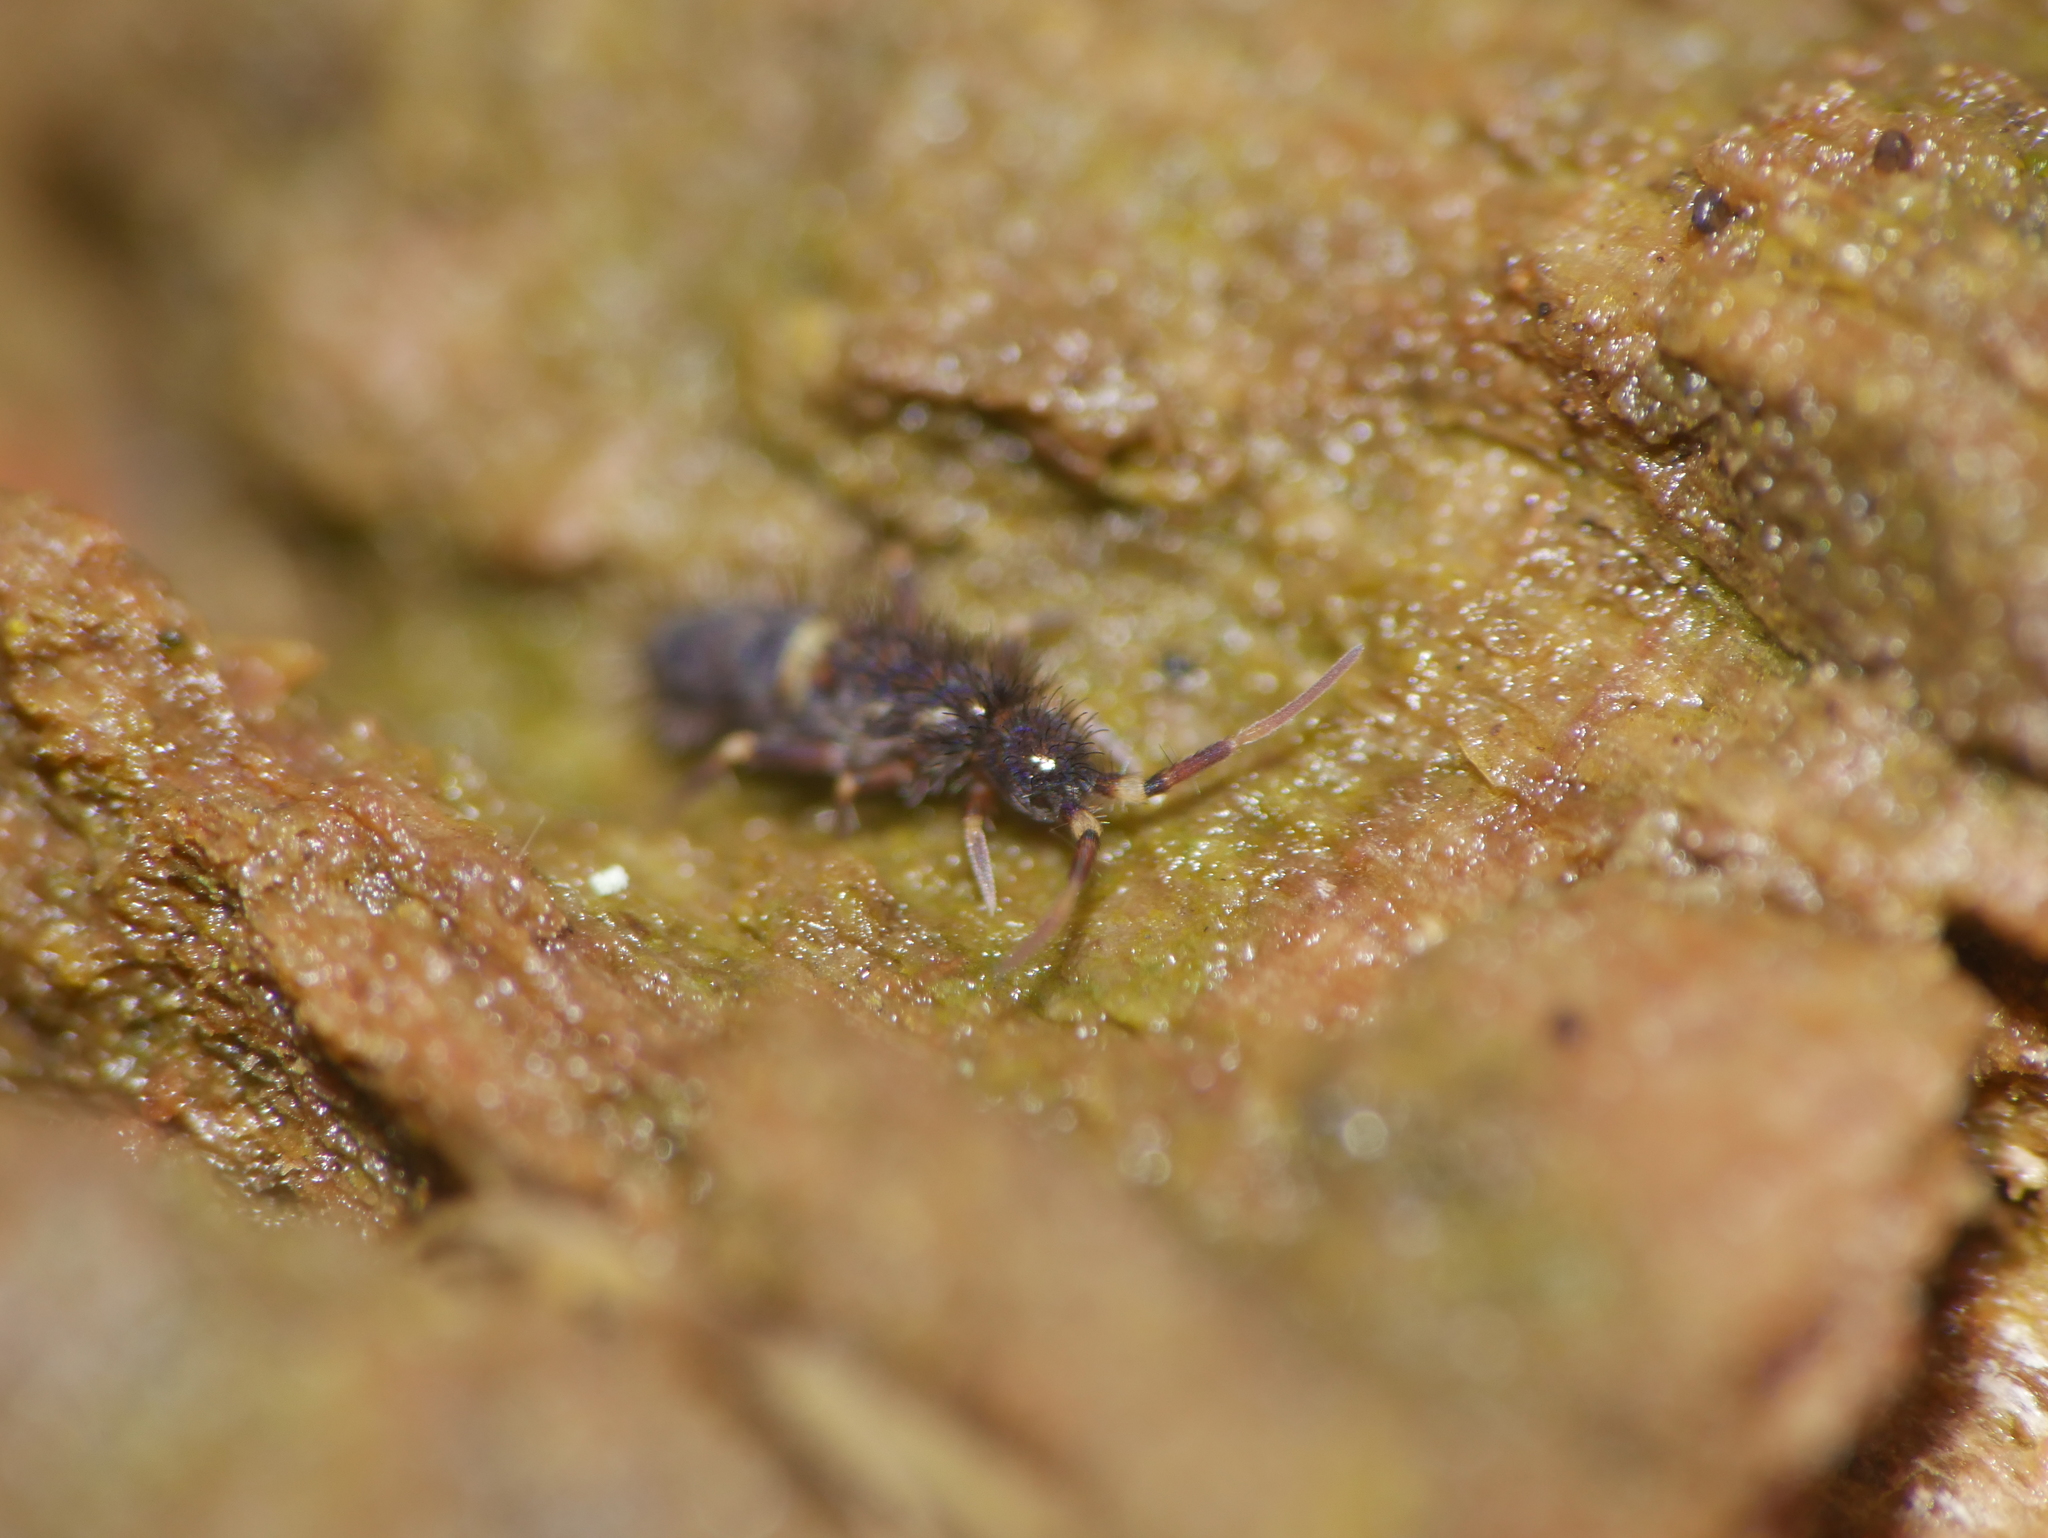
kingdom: Animalia
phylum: Arthropoda
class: Collembola
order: Entomobryomorpha
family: Orchesellidae
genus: Orchesella
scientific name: Orchesella cincta
